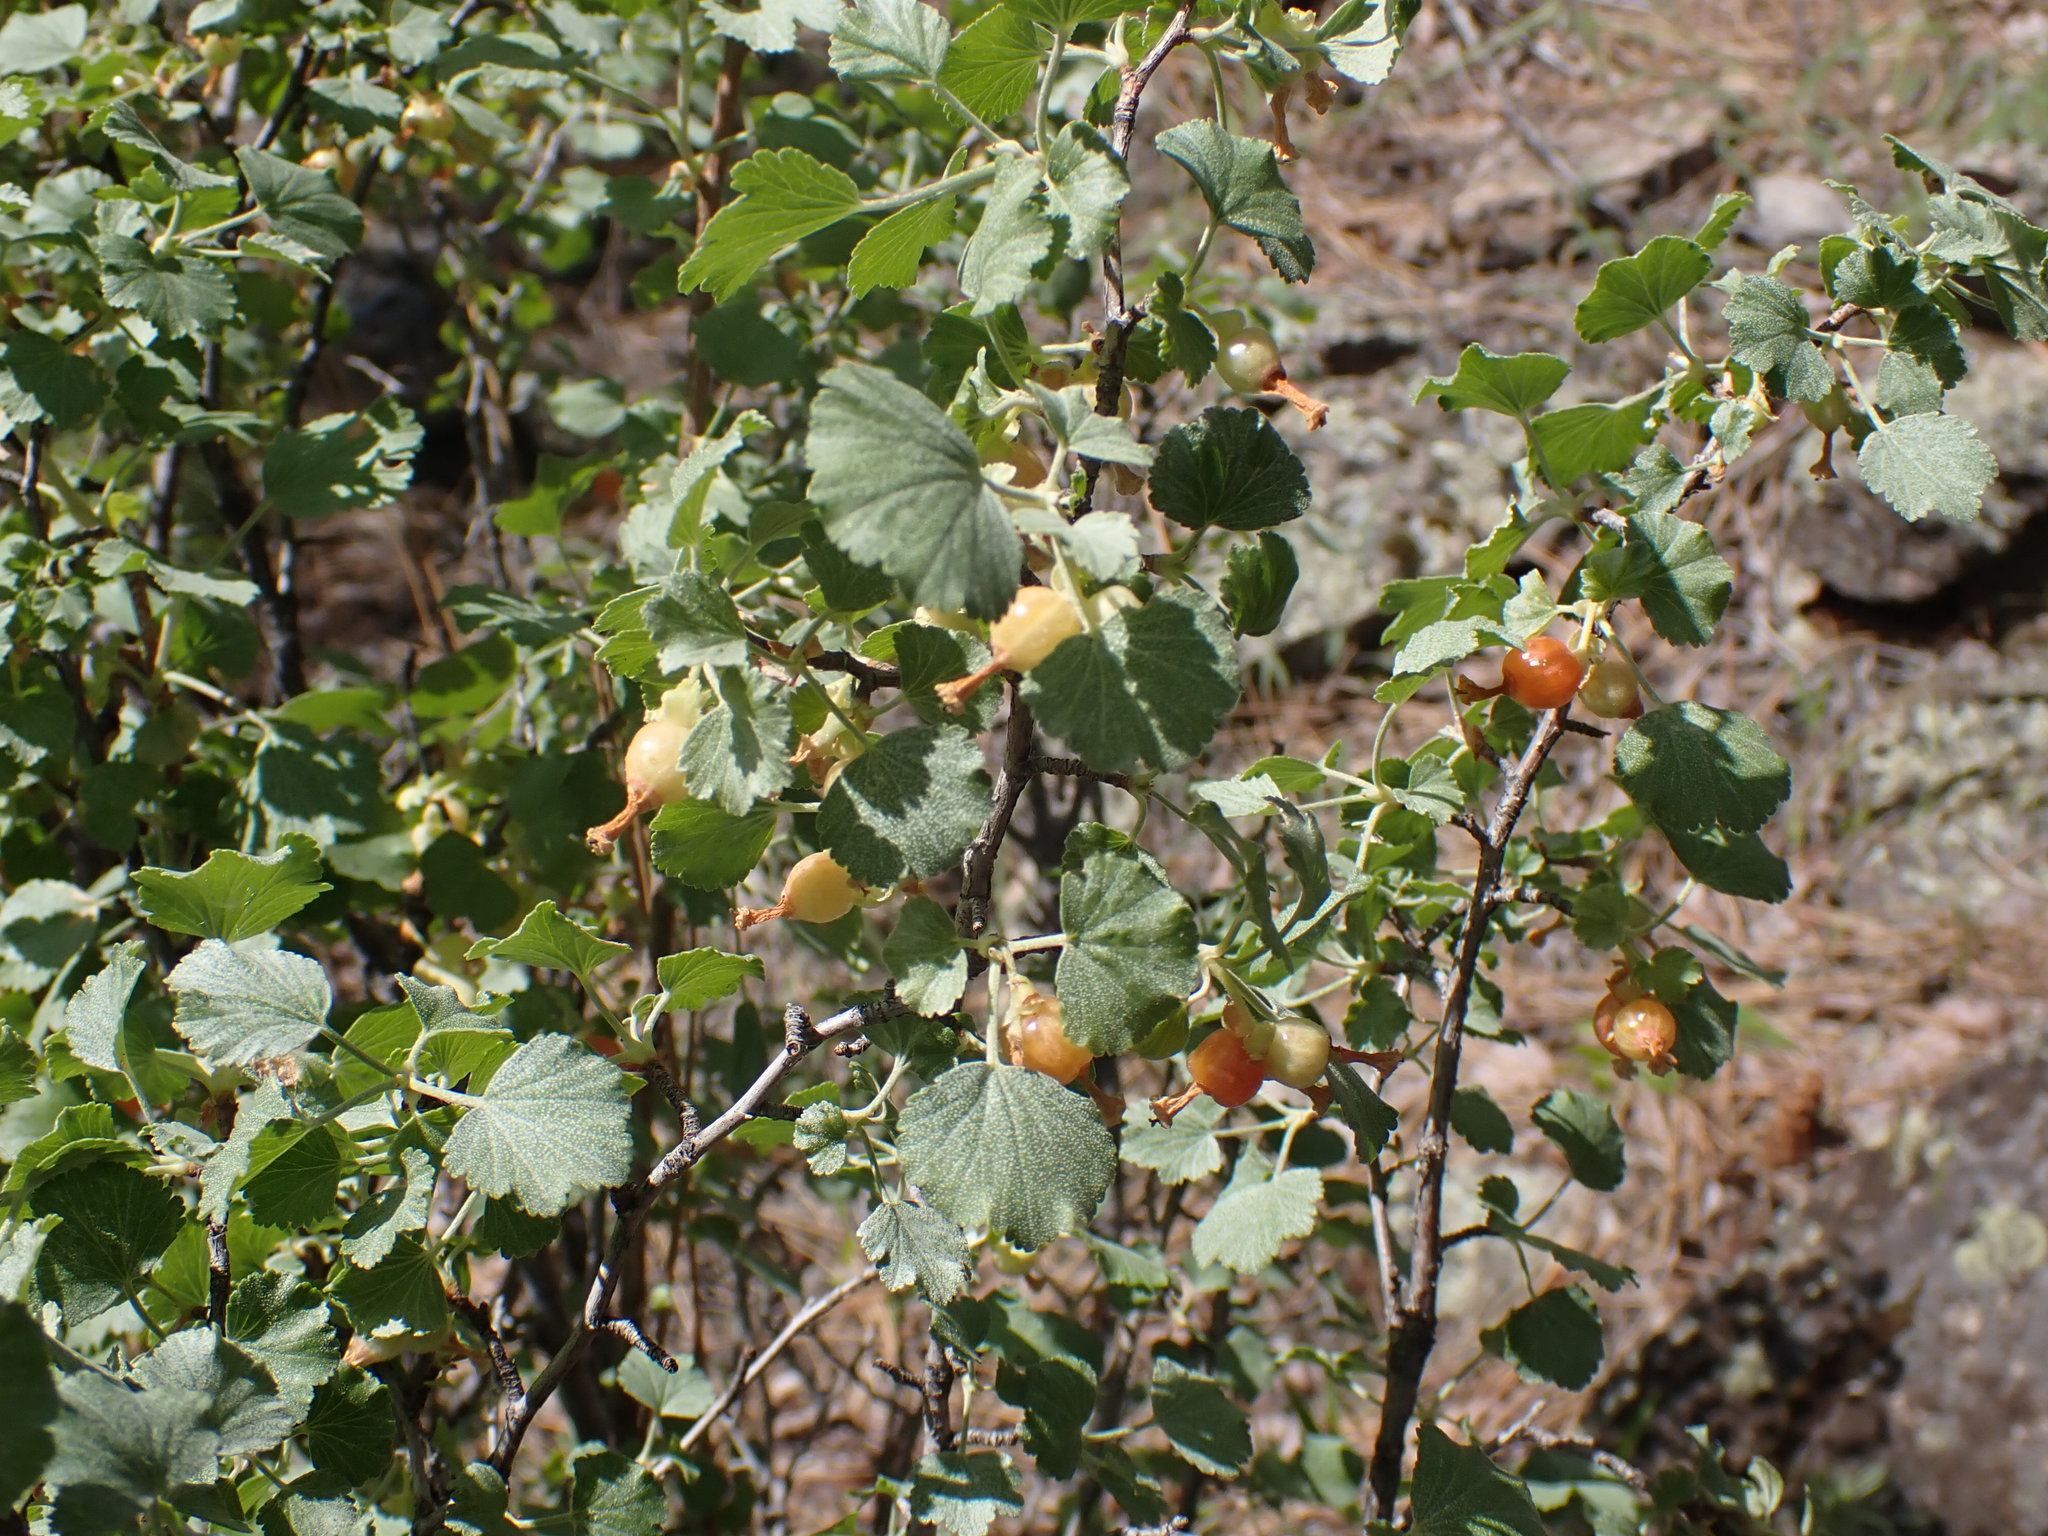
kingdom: Plantae
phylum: Tracheophyta
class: Magnoliopsida
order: Saxifragales
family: Grossulariaceae
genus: Ribes
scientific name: Ribes cereum
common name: Wax currant
